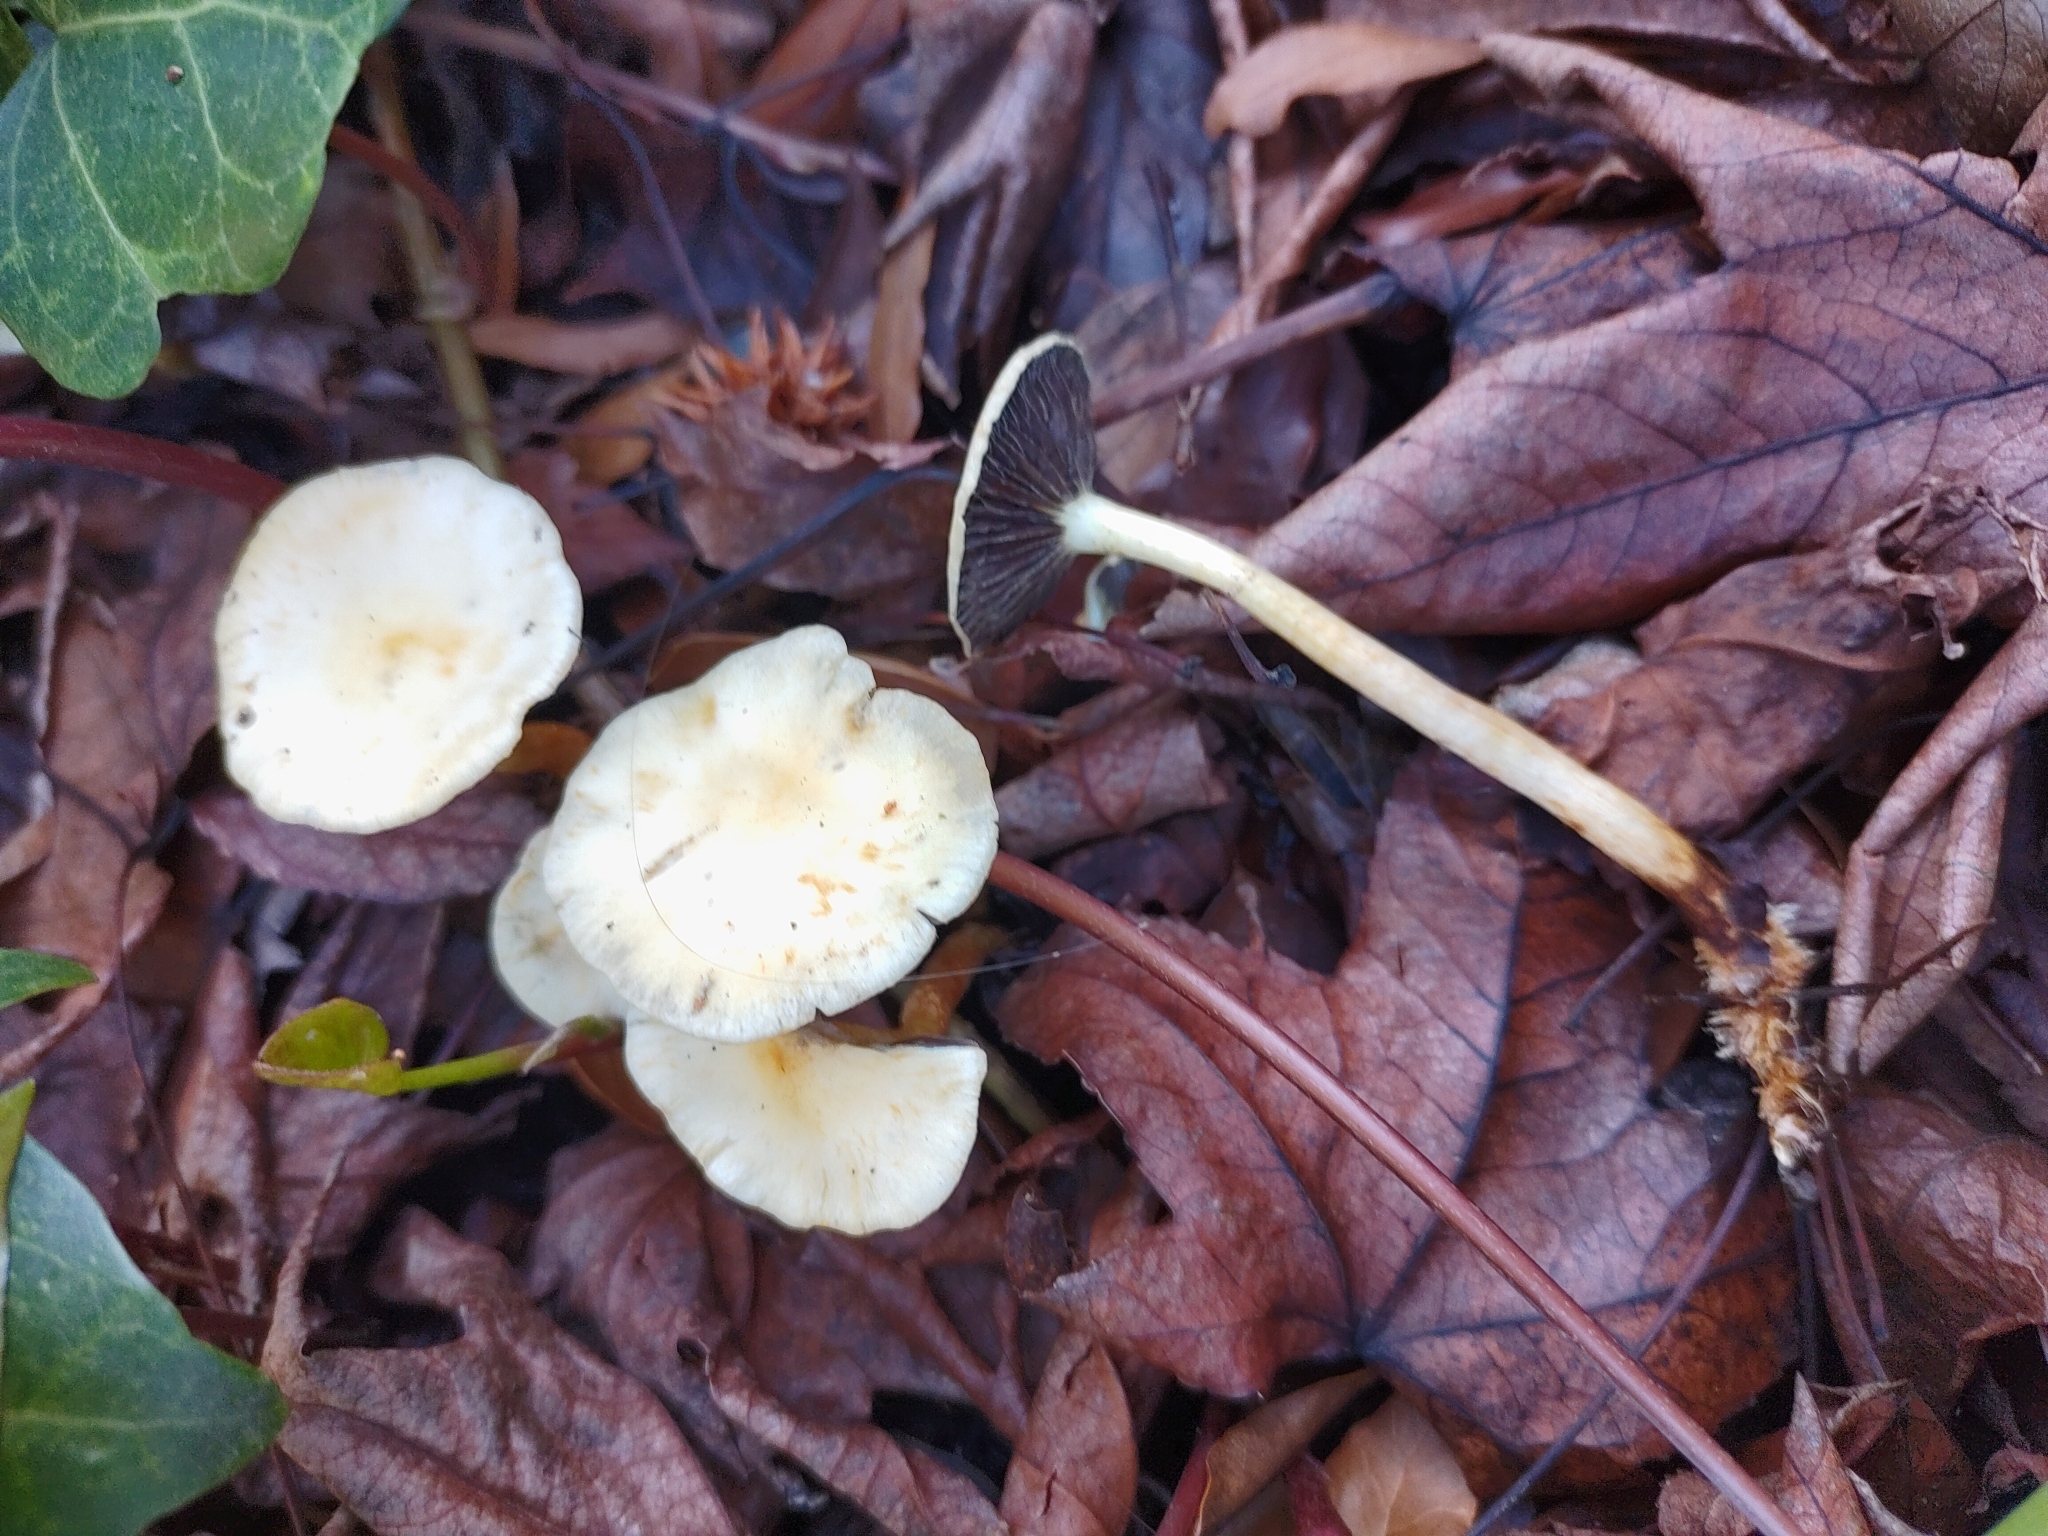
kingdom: Fungi
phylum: Basidiomycota
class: Agaricomycetes
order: Agaricales
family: Strophariaceae
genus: Leratiomyces
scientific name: Leratiomyces percevalii
